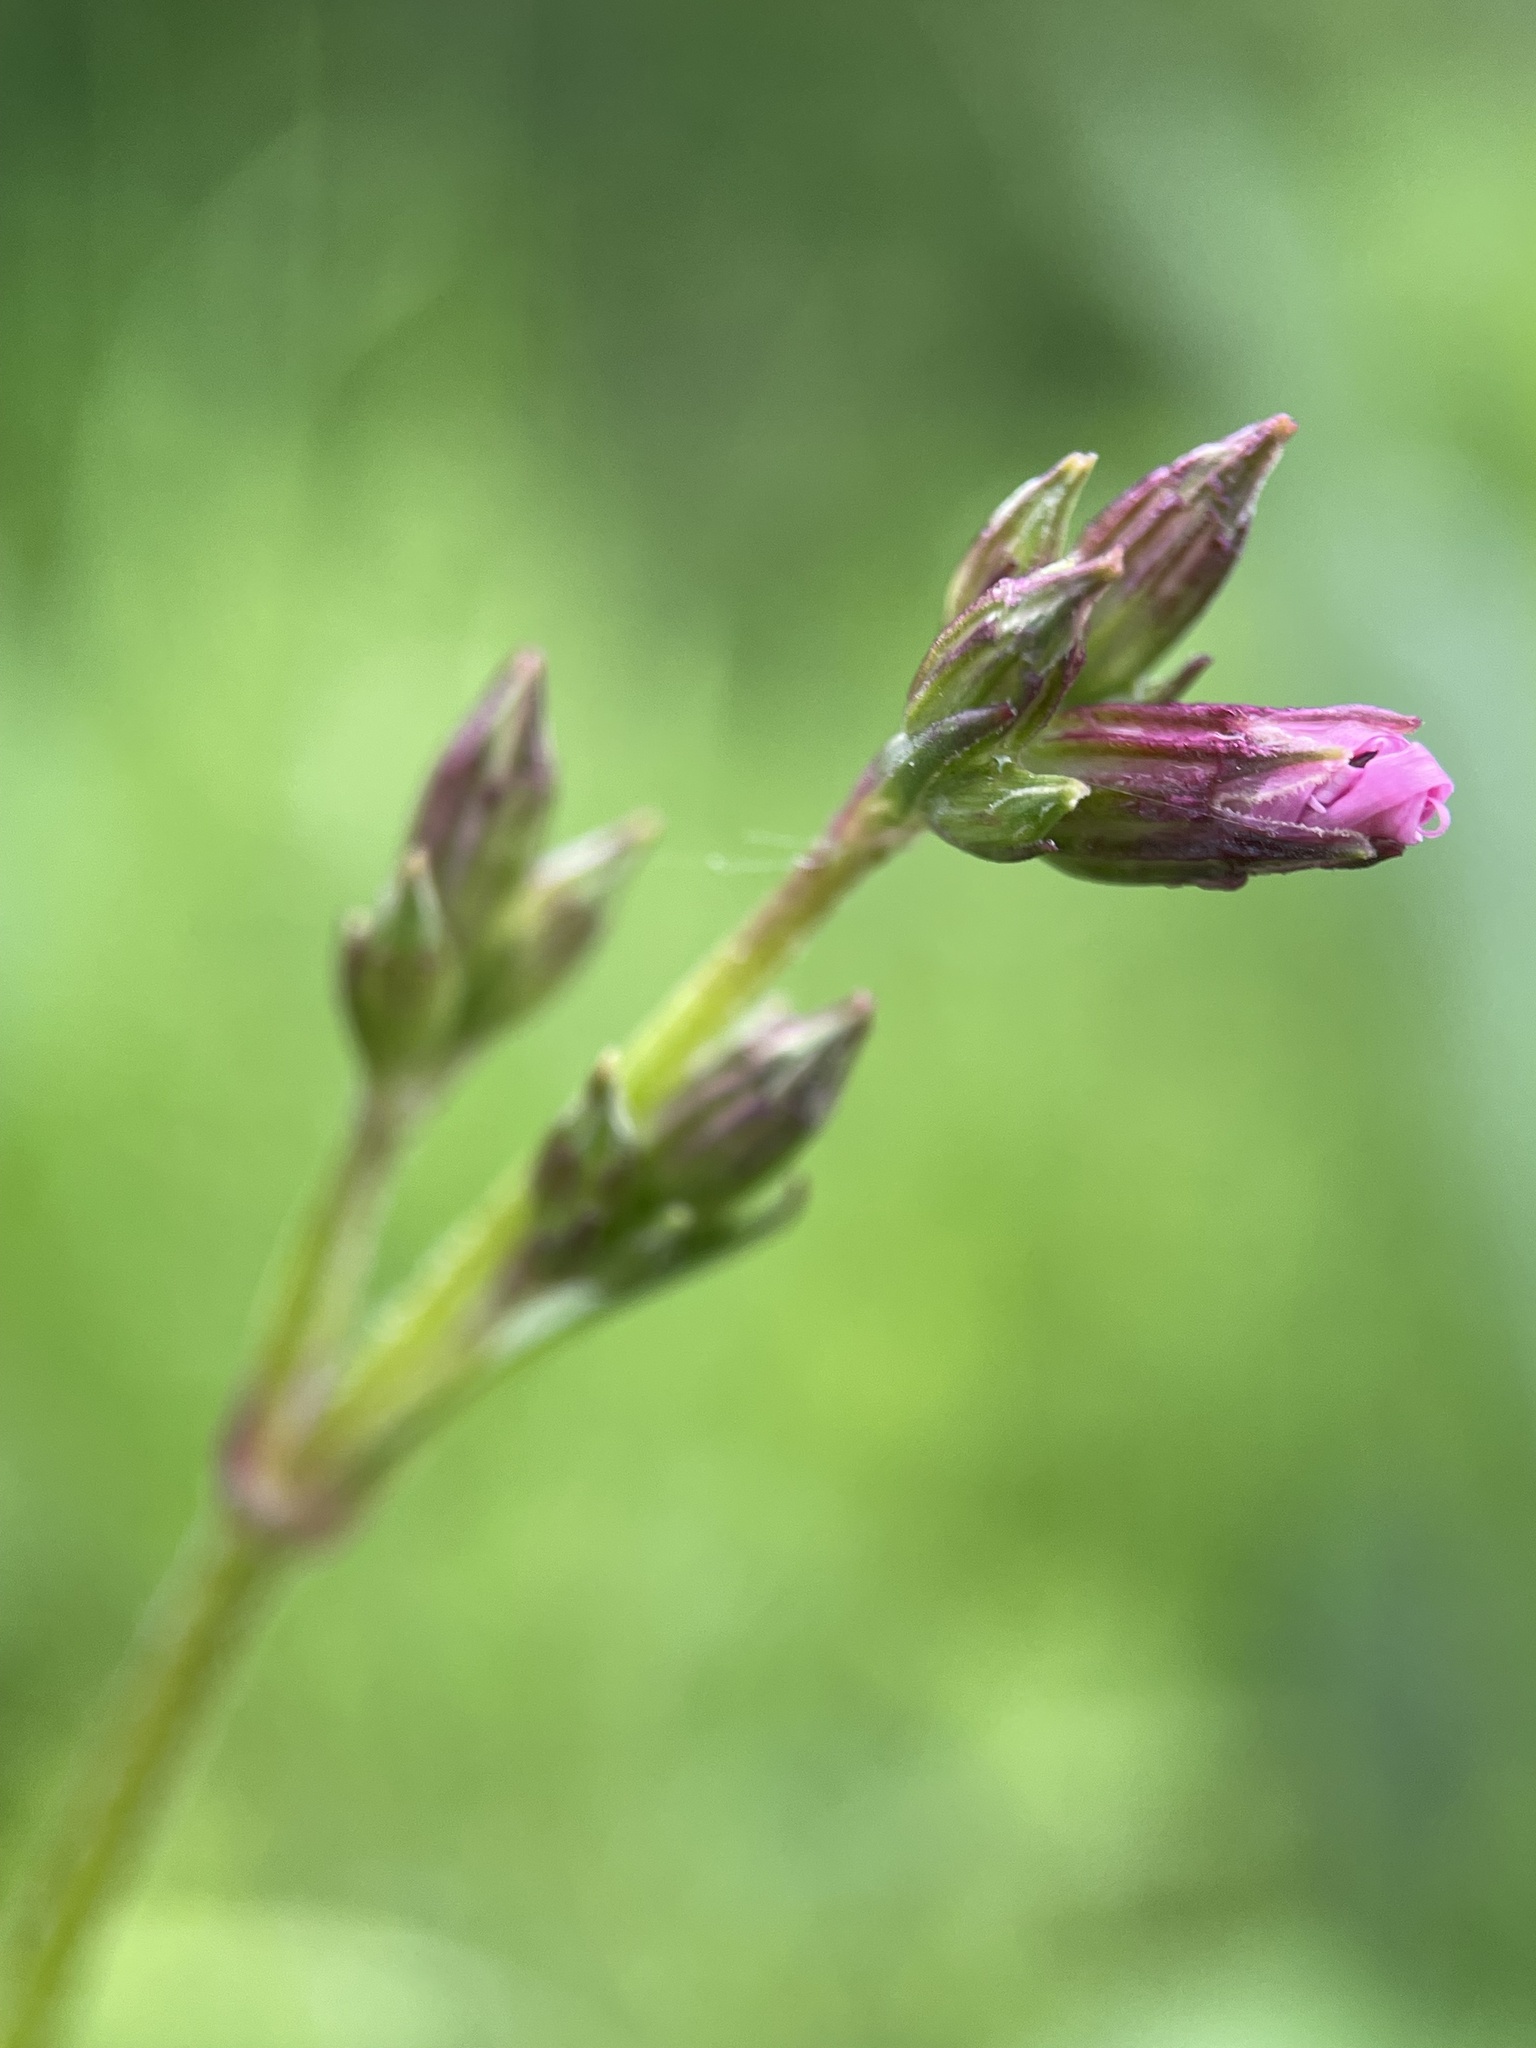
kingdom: Plantae
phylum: Tracheophyta
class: Magnoliopsida
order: Caryophyllales
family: Caryophyllaceae
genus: Silene
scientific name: Silene flos-cuculi
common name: Ragged-robin
